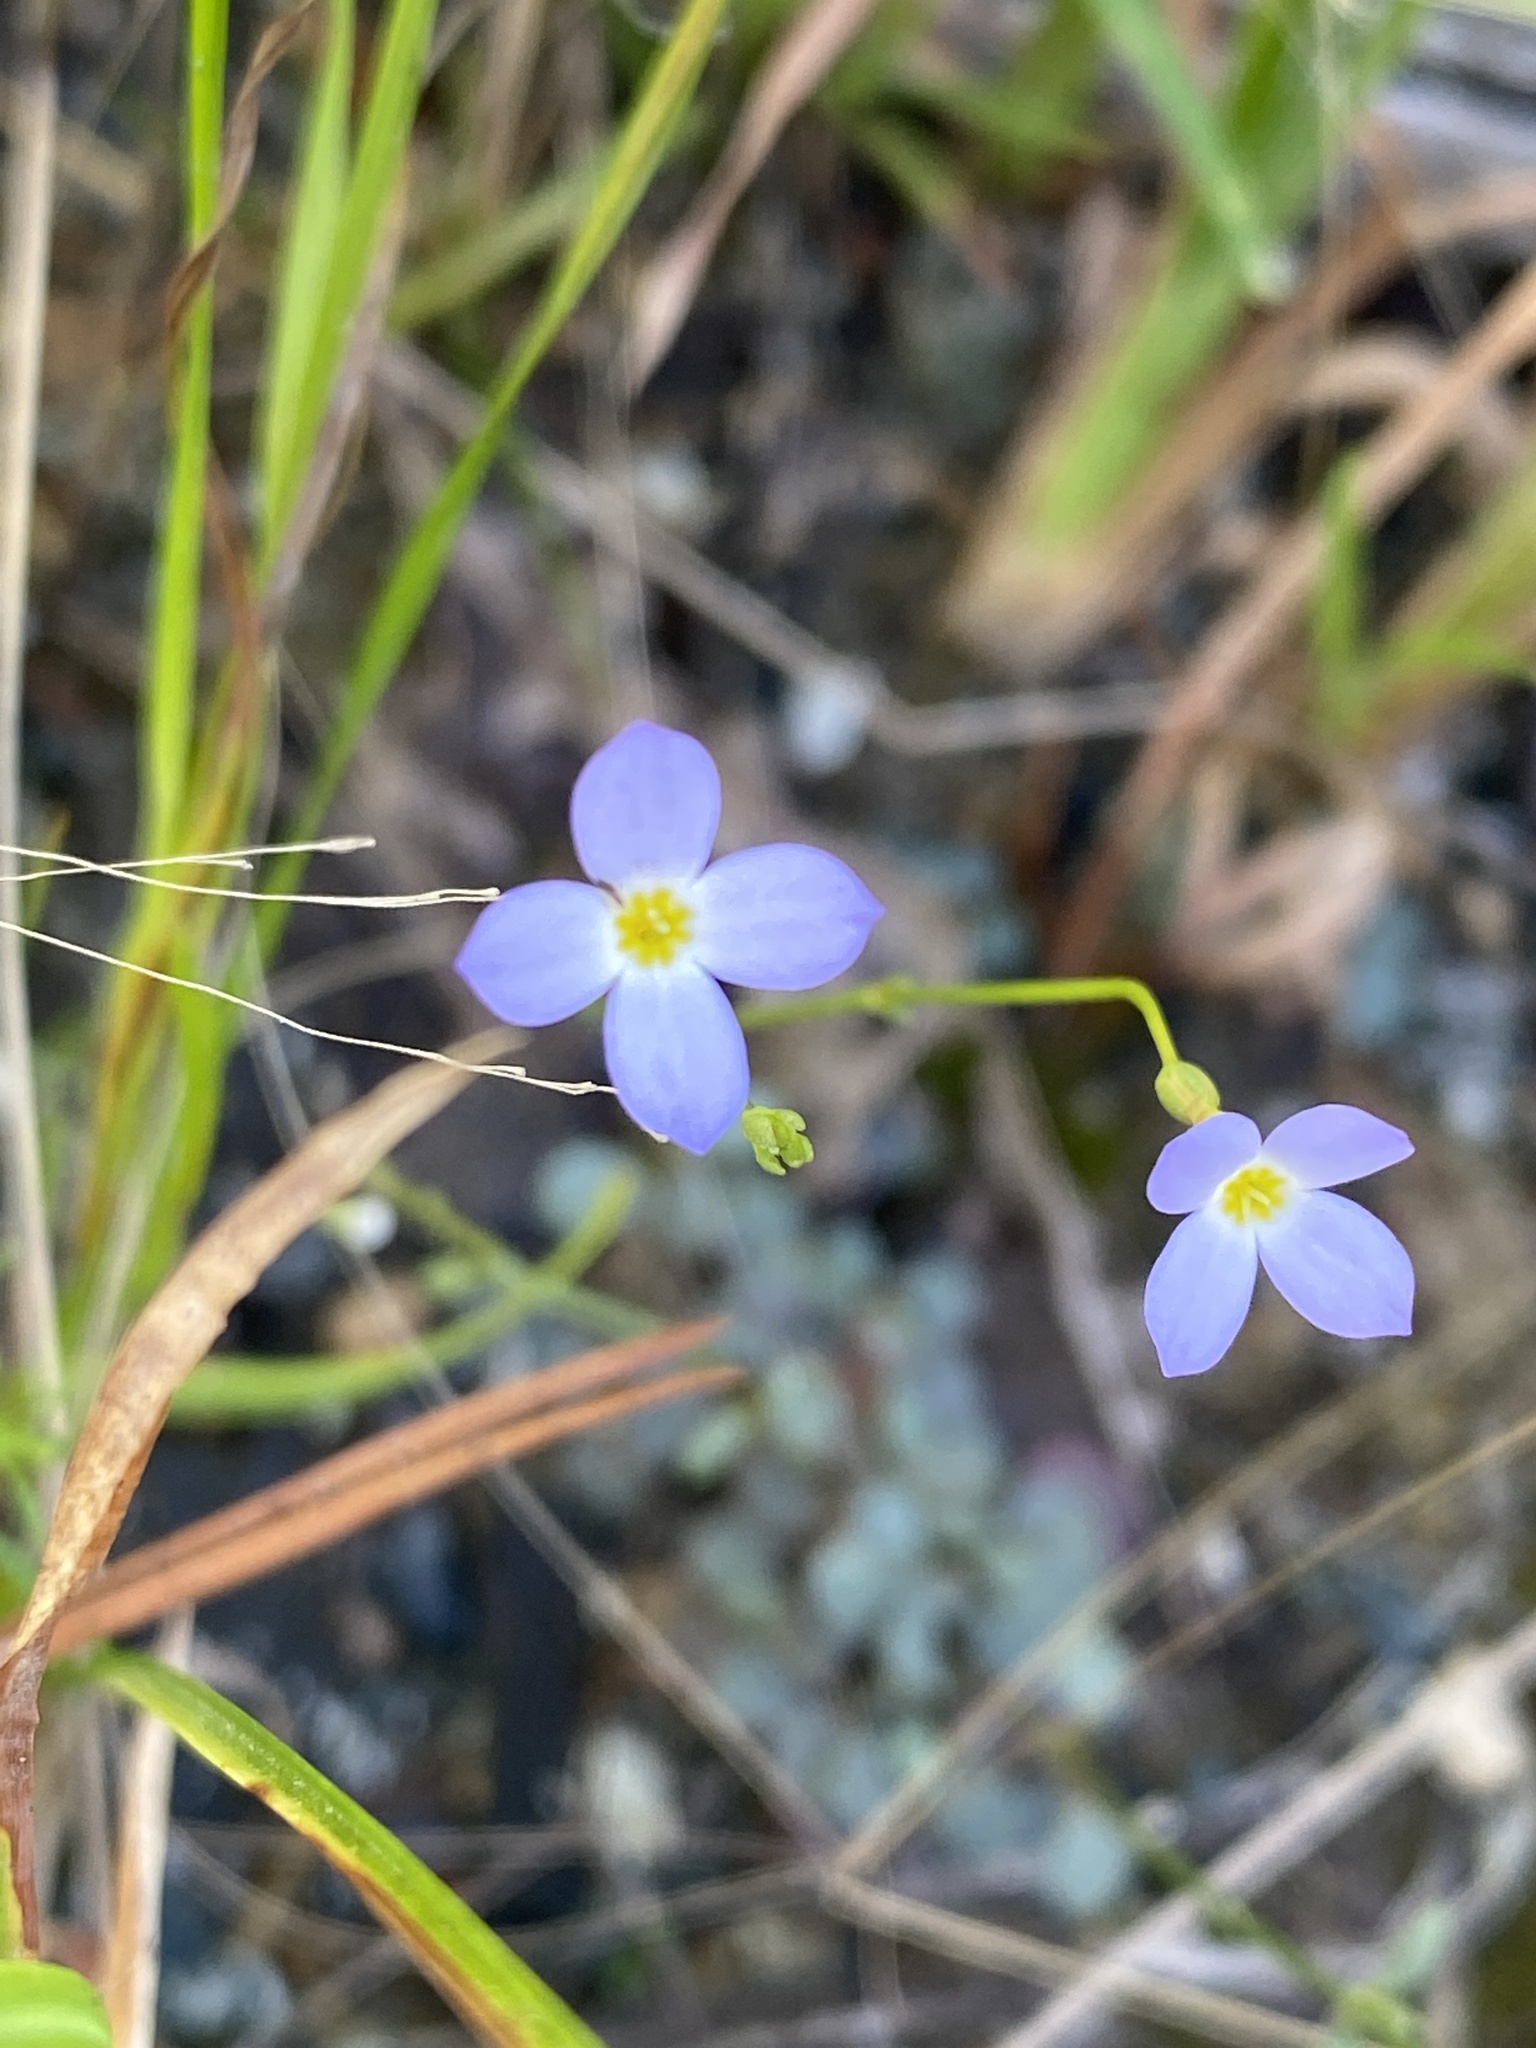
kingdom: Plantae
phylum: Tracheophyta
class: Magnoliopsida
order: Gentianales
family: Rubiaceae
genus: Houstonia
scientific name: Houstonia caerulea
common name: Bluets
